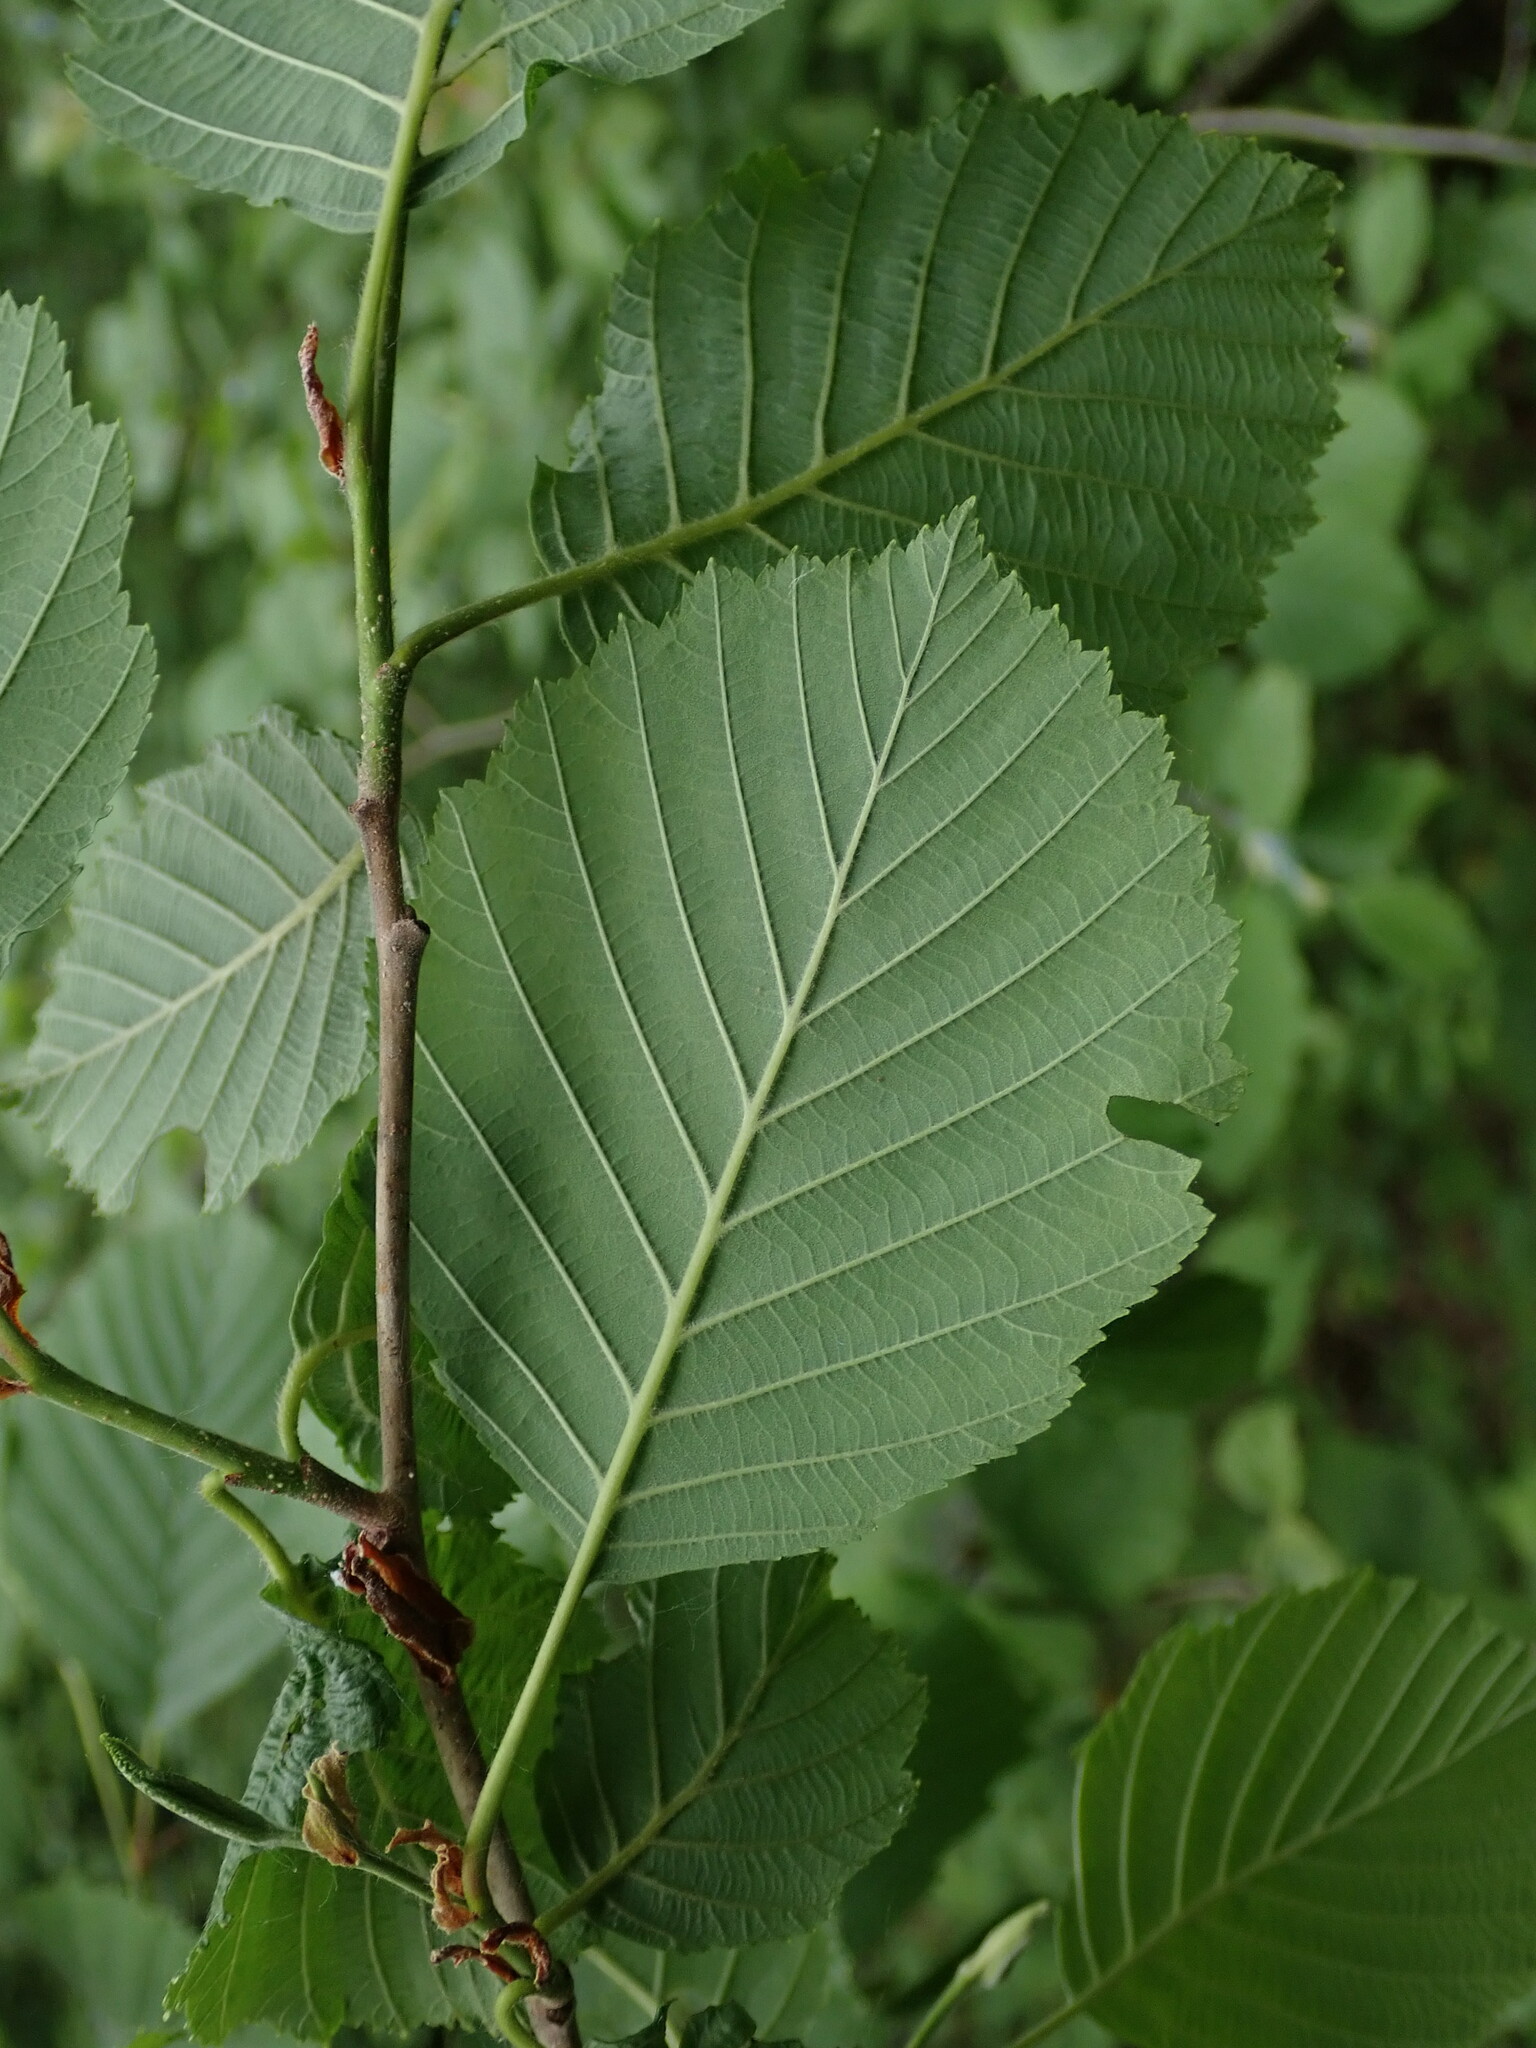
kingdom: Plantae
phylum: Tracheophyta
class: Magnoliopsida
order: Fagales
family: Betulaceae
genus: Alnus
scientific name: Alnus incana
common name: Grey alder
